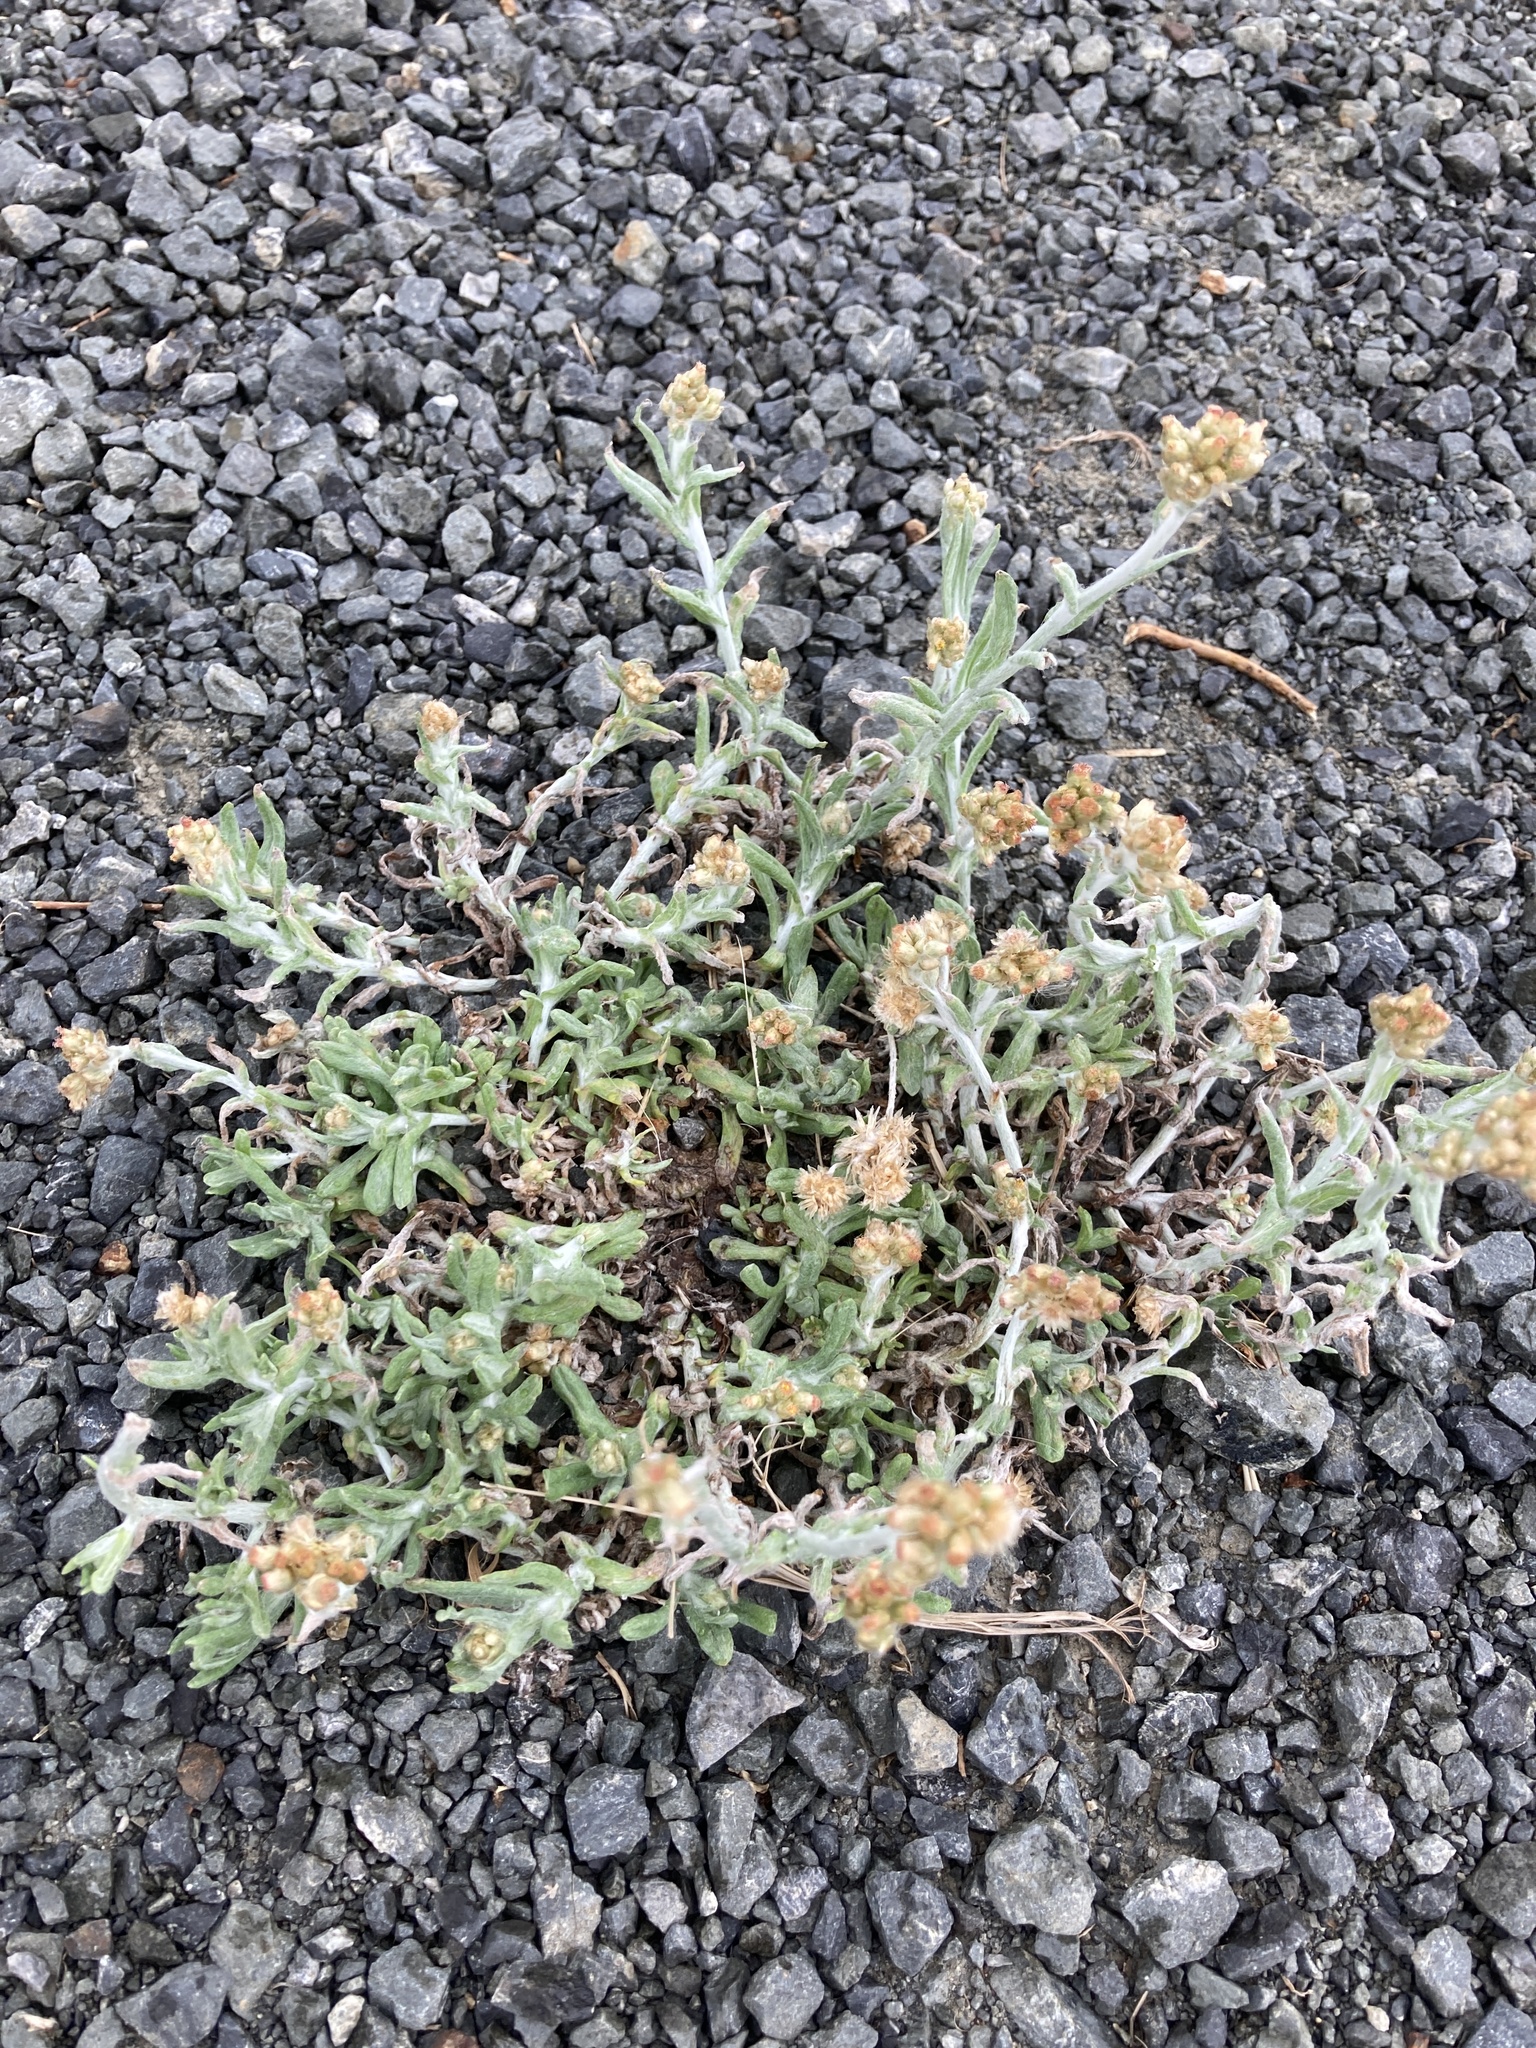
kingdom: Plantae
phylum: Tracheophyta
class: Magnoliopsida
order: Asterales
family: Asteraceae
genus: Helichrysum
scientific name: Helichrysum luteoalbum
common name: Daisy
